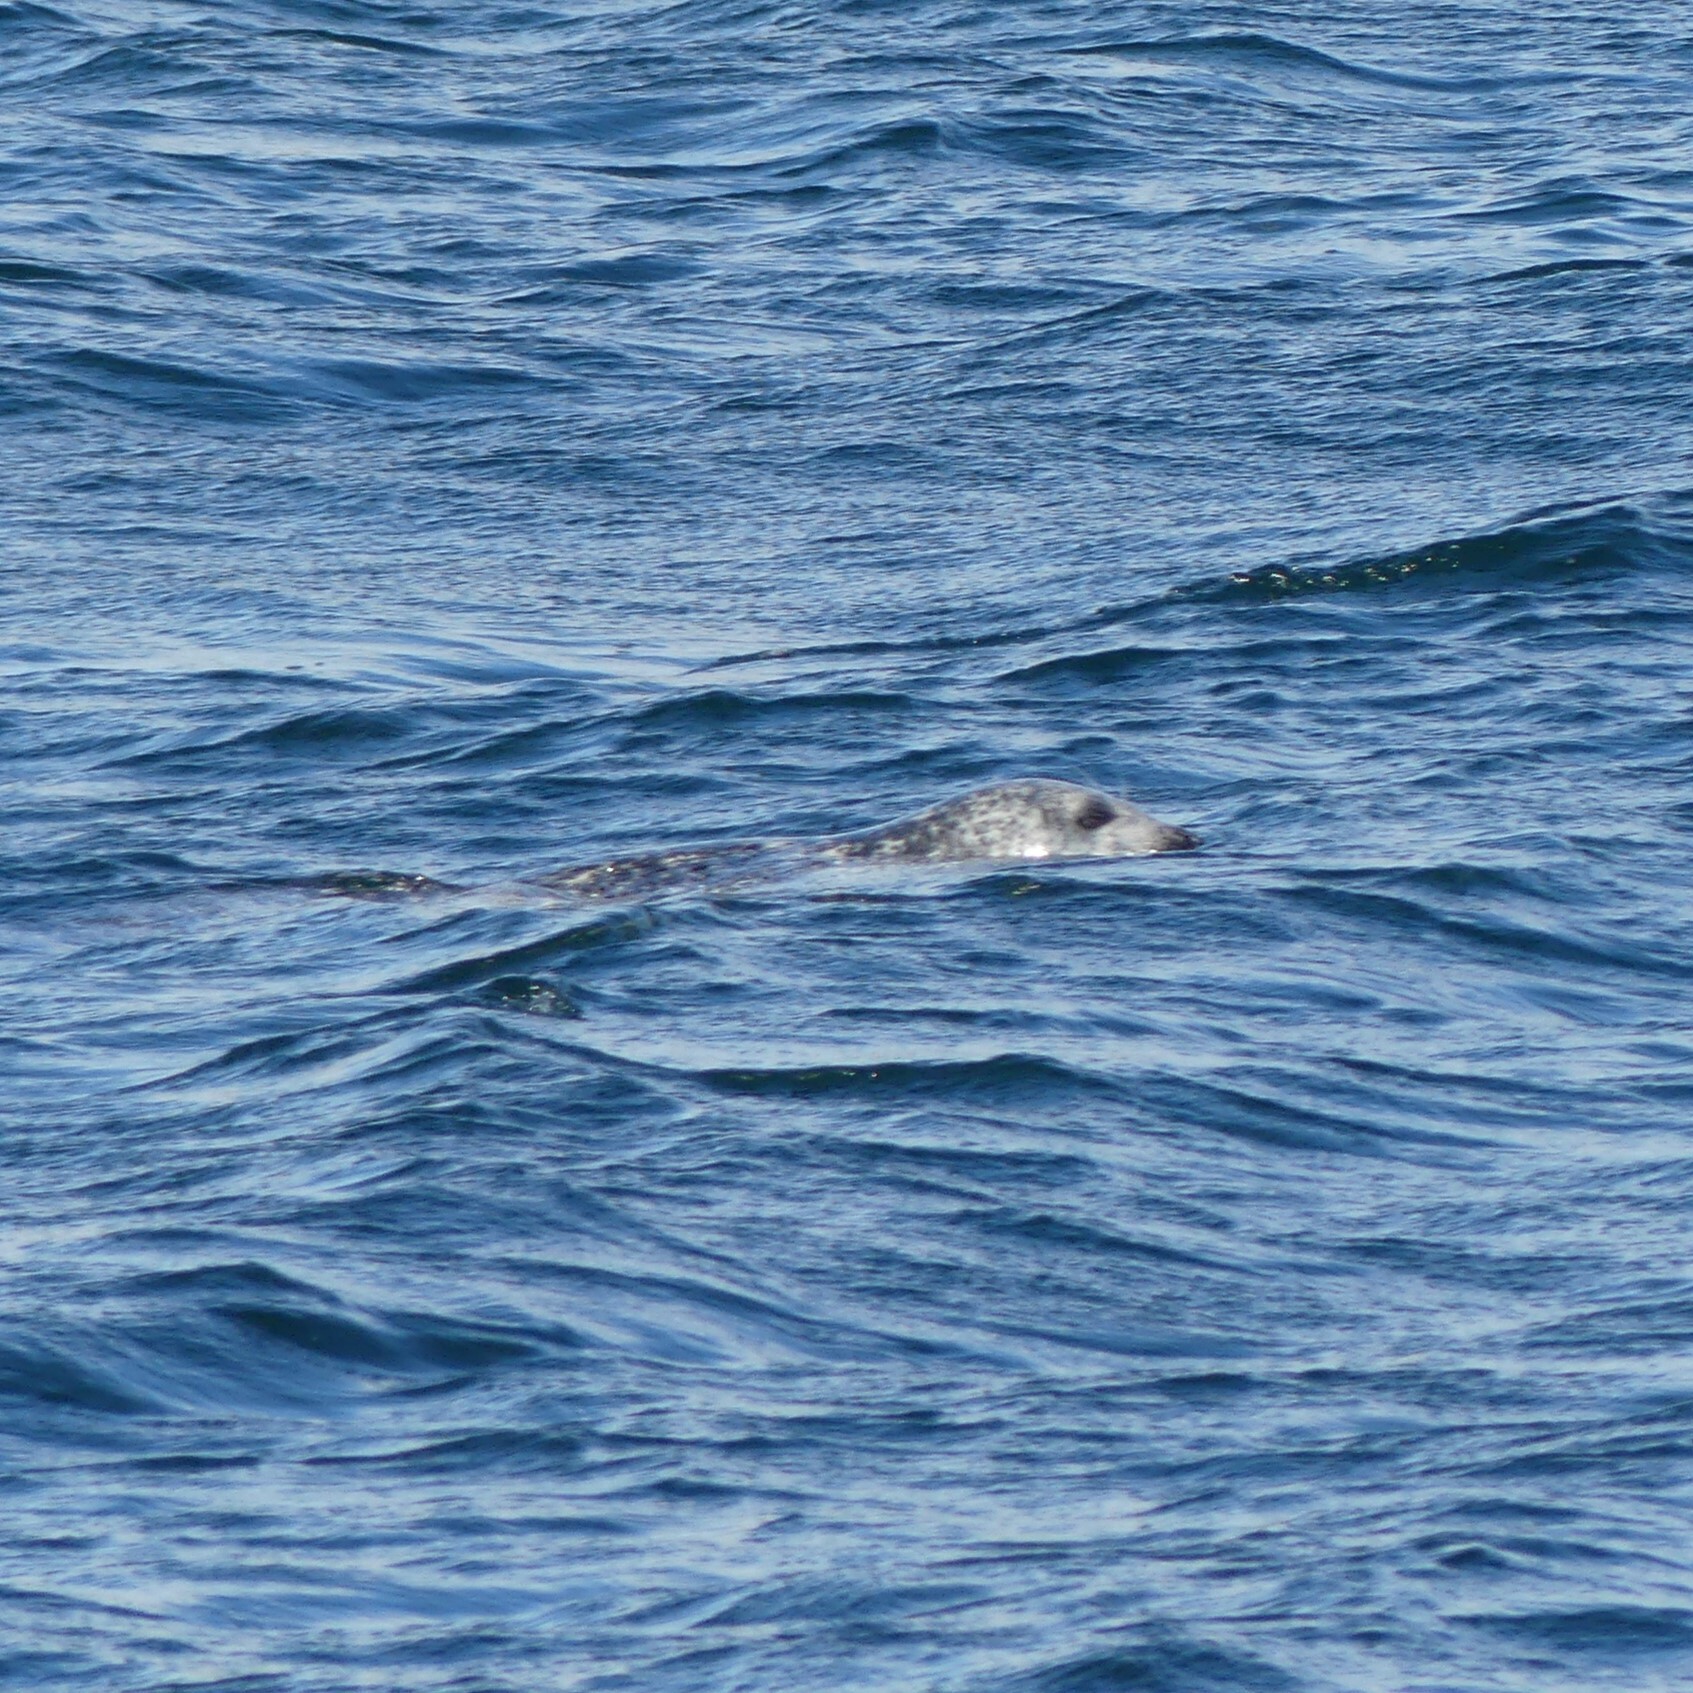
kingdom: Animalia
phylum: Chordata
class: Mammalia
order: Carnivora
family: Phocidae
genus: Phoca
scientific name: Phoca vitulina
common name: Harbor seal
